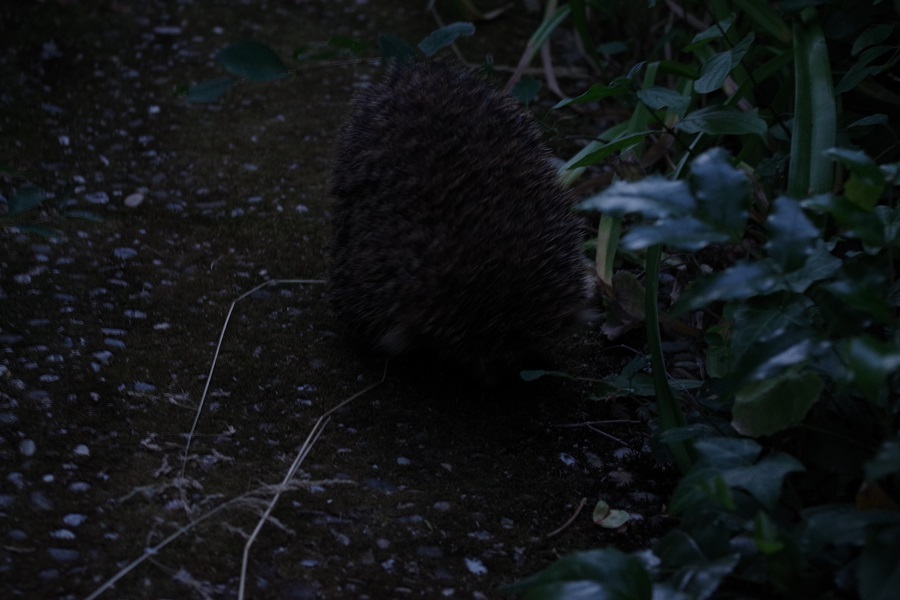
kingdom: Animalia
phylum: Chordata
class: Mammalia
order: Erinaceomorpha
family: Erinaceidae
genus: Erinaceus
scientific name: Erinaceus europaeus
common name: West european hedgehog
